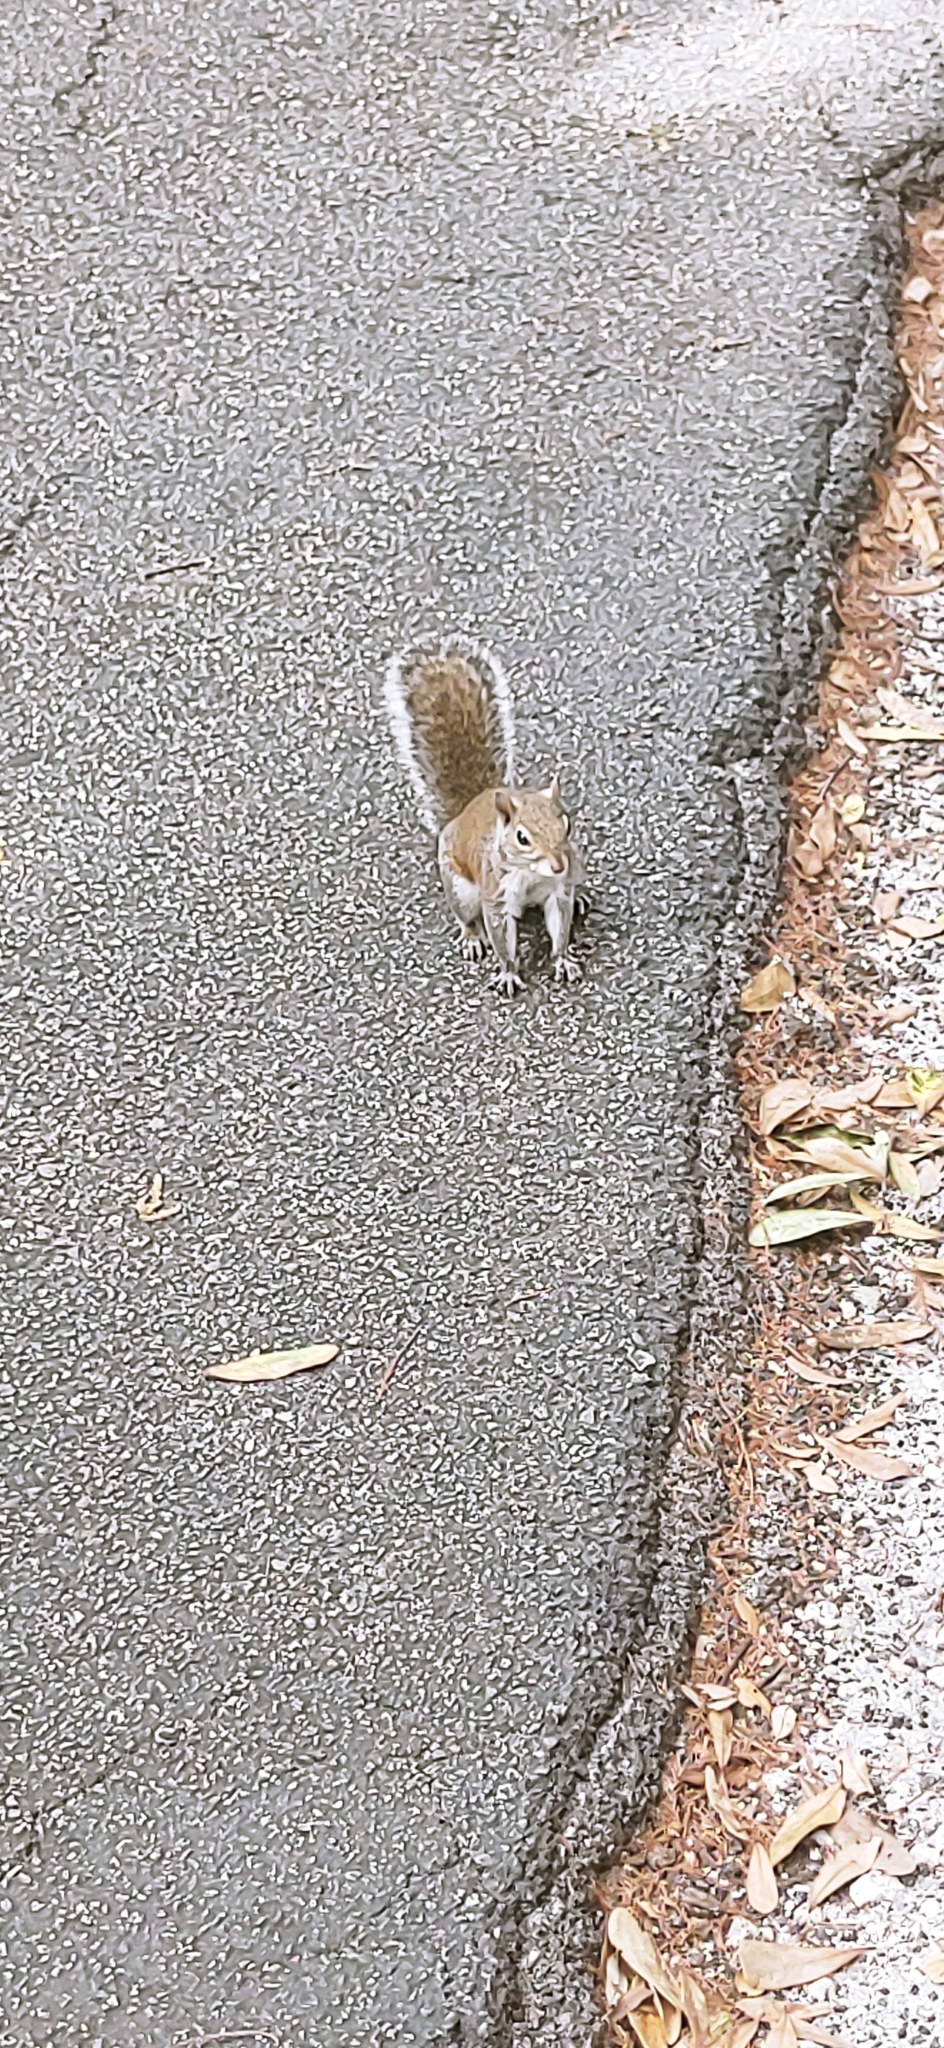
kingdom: Animalia
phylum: Chordata
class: Mammalia
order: Rodentia
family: Sciuridae
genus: Sciurus
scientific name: Sciurus carolinensis
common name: Eastern gray squirrel
